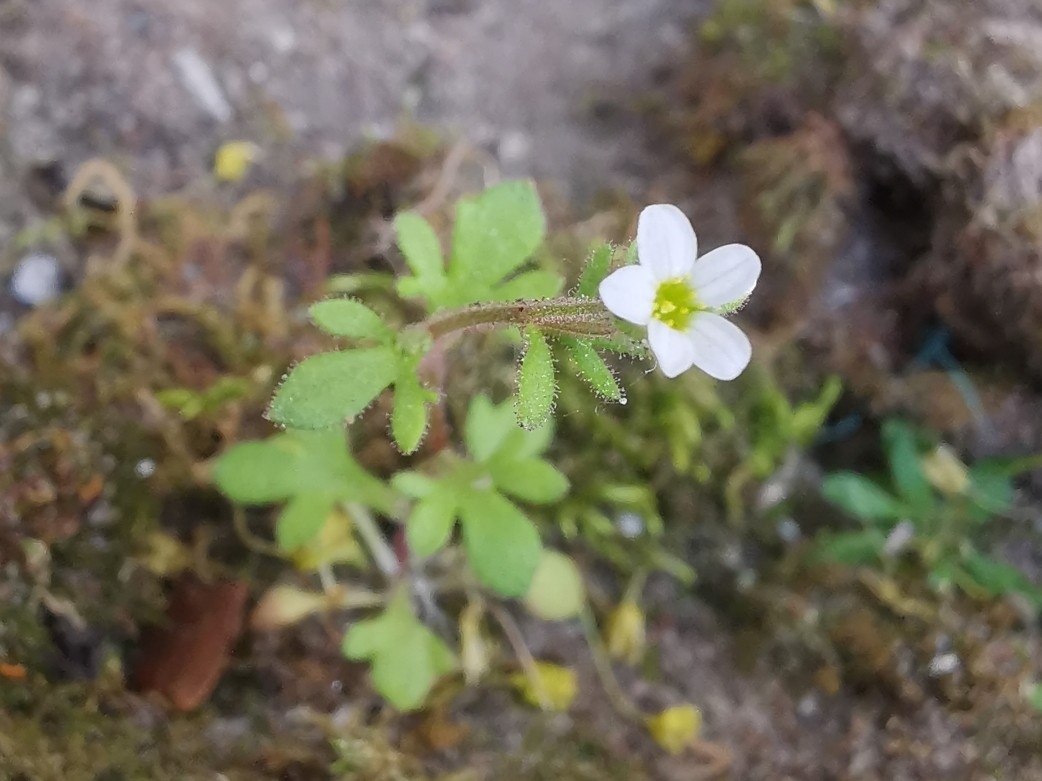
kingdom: Plantae
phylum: Tracheophyta
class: Magnoliopsida
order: Saxifragales
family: Saxifragaceae
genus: Saxifraga
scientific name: Saxifraga tridactylites
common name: Rue-leaved saxifrage
